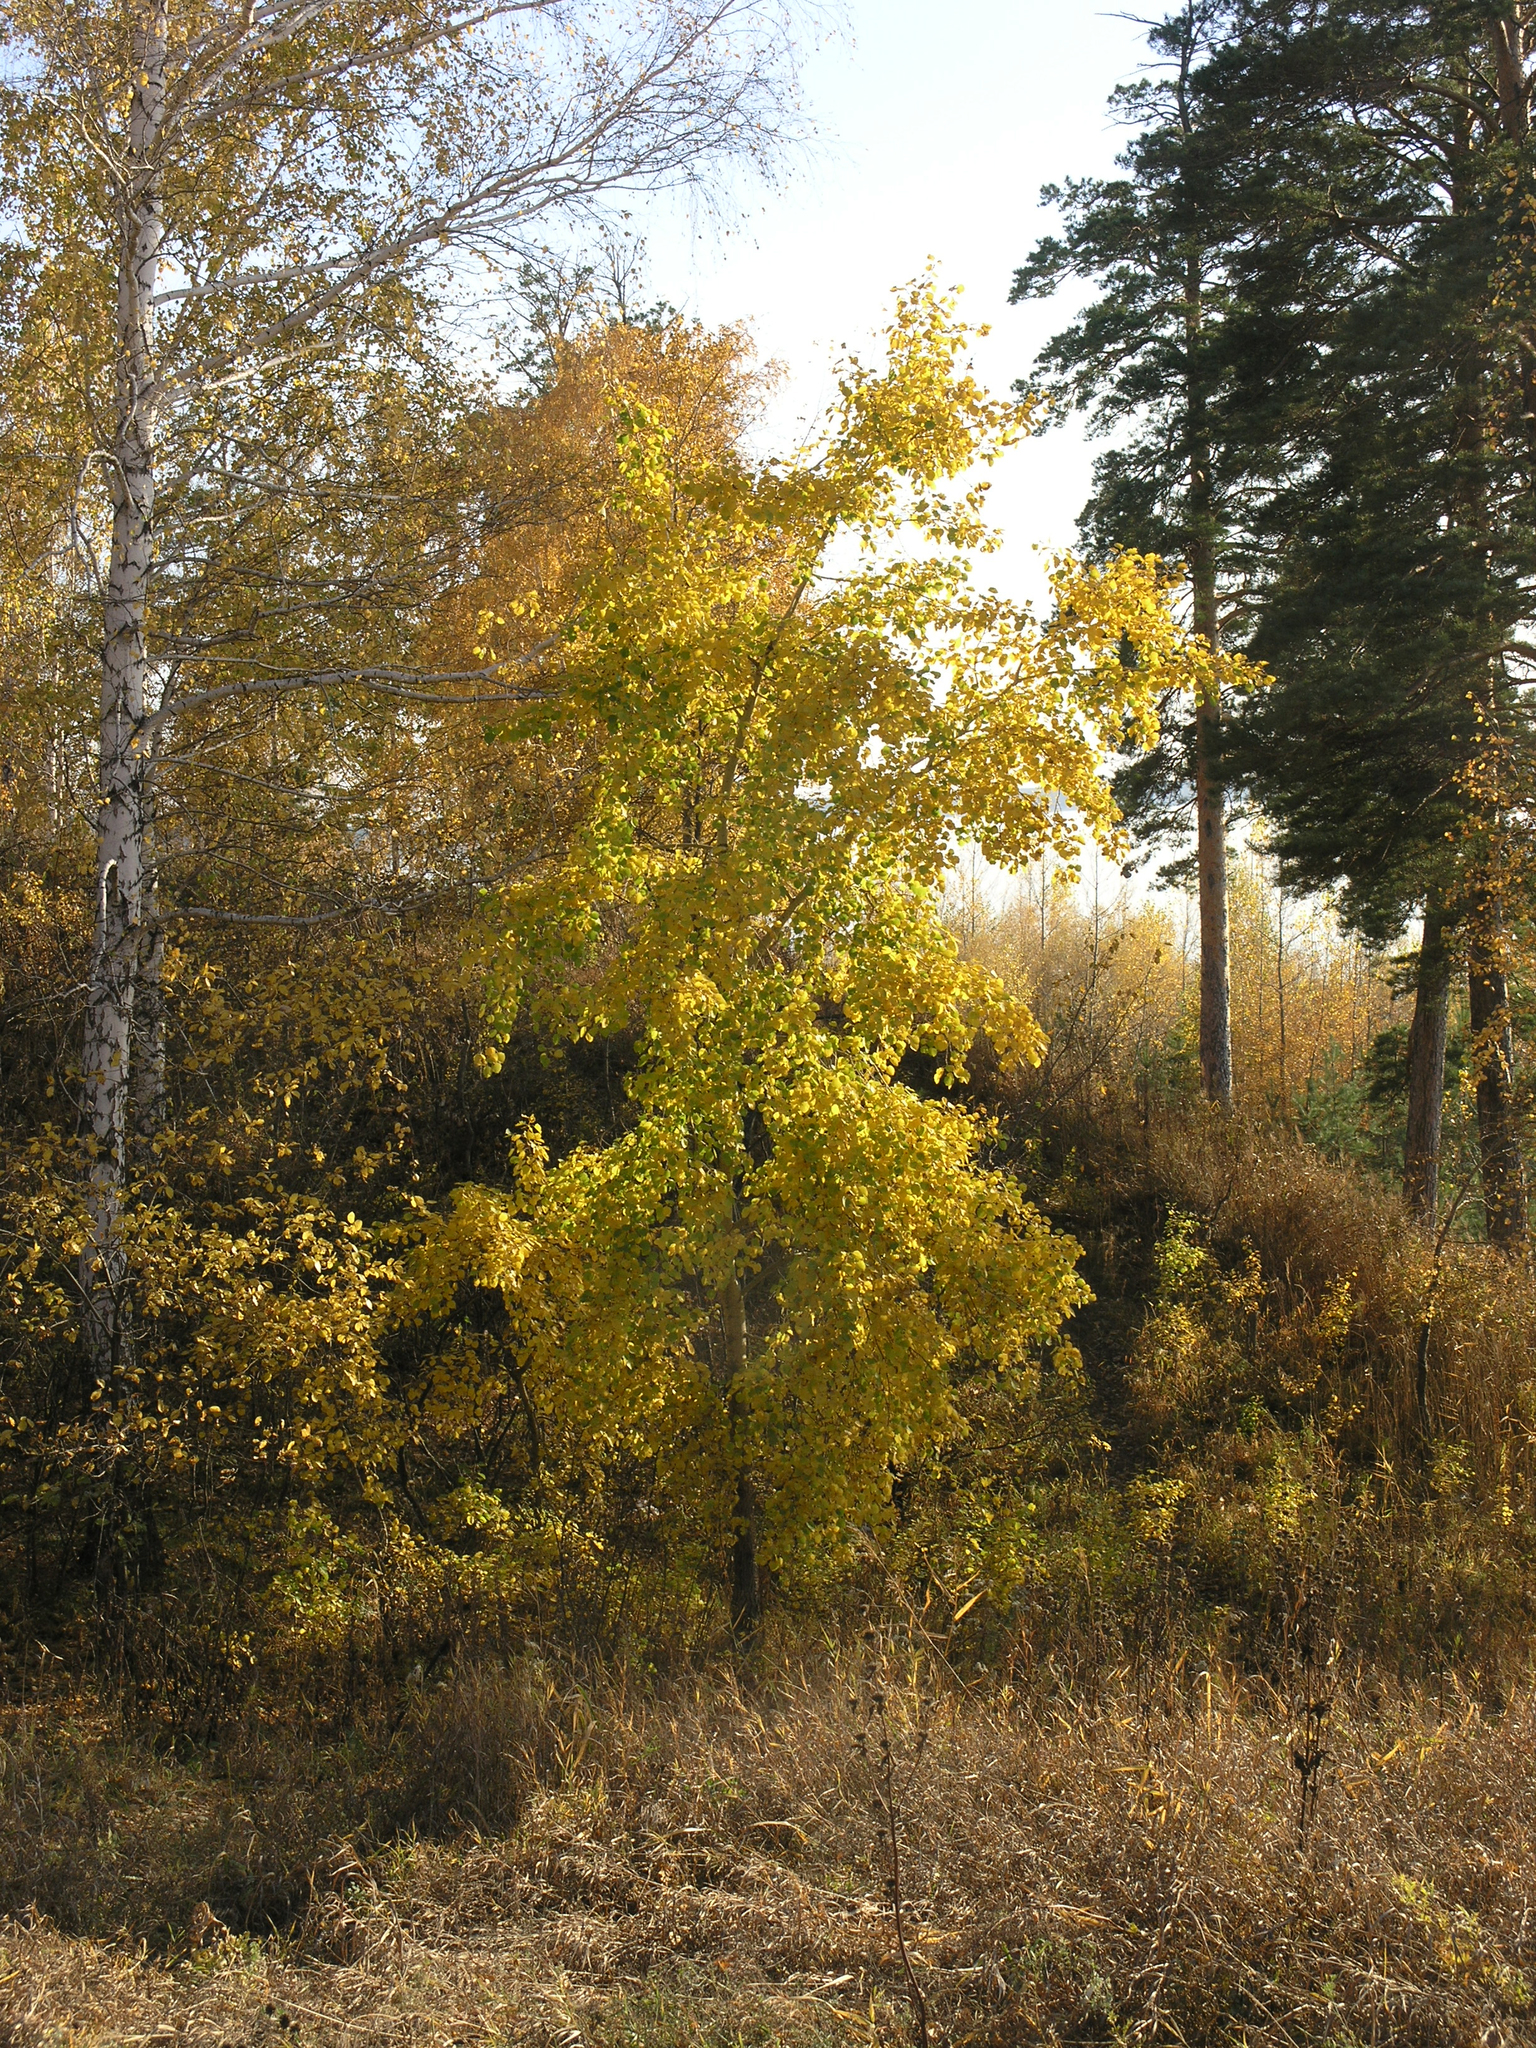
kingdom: Plantae
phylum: Tracheophyta
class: Magnoliopsida
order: Malpighiales
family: Salicaceae
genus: Populus
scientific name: Populus tremula
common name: European aspen
